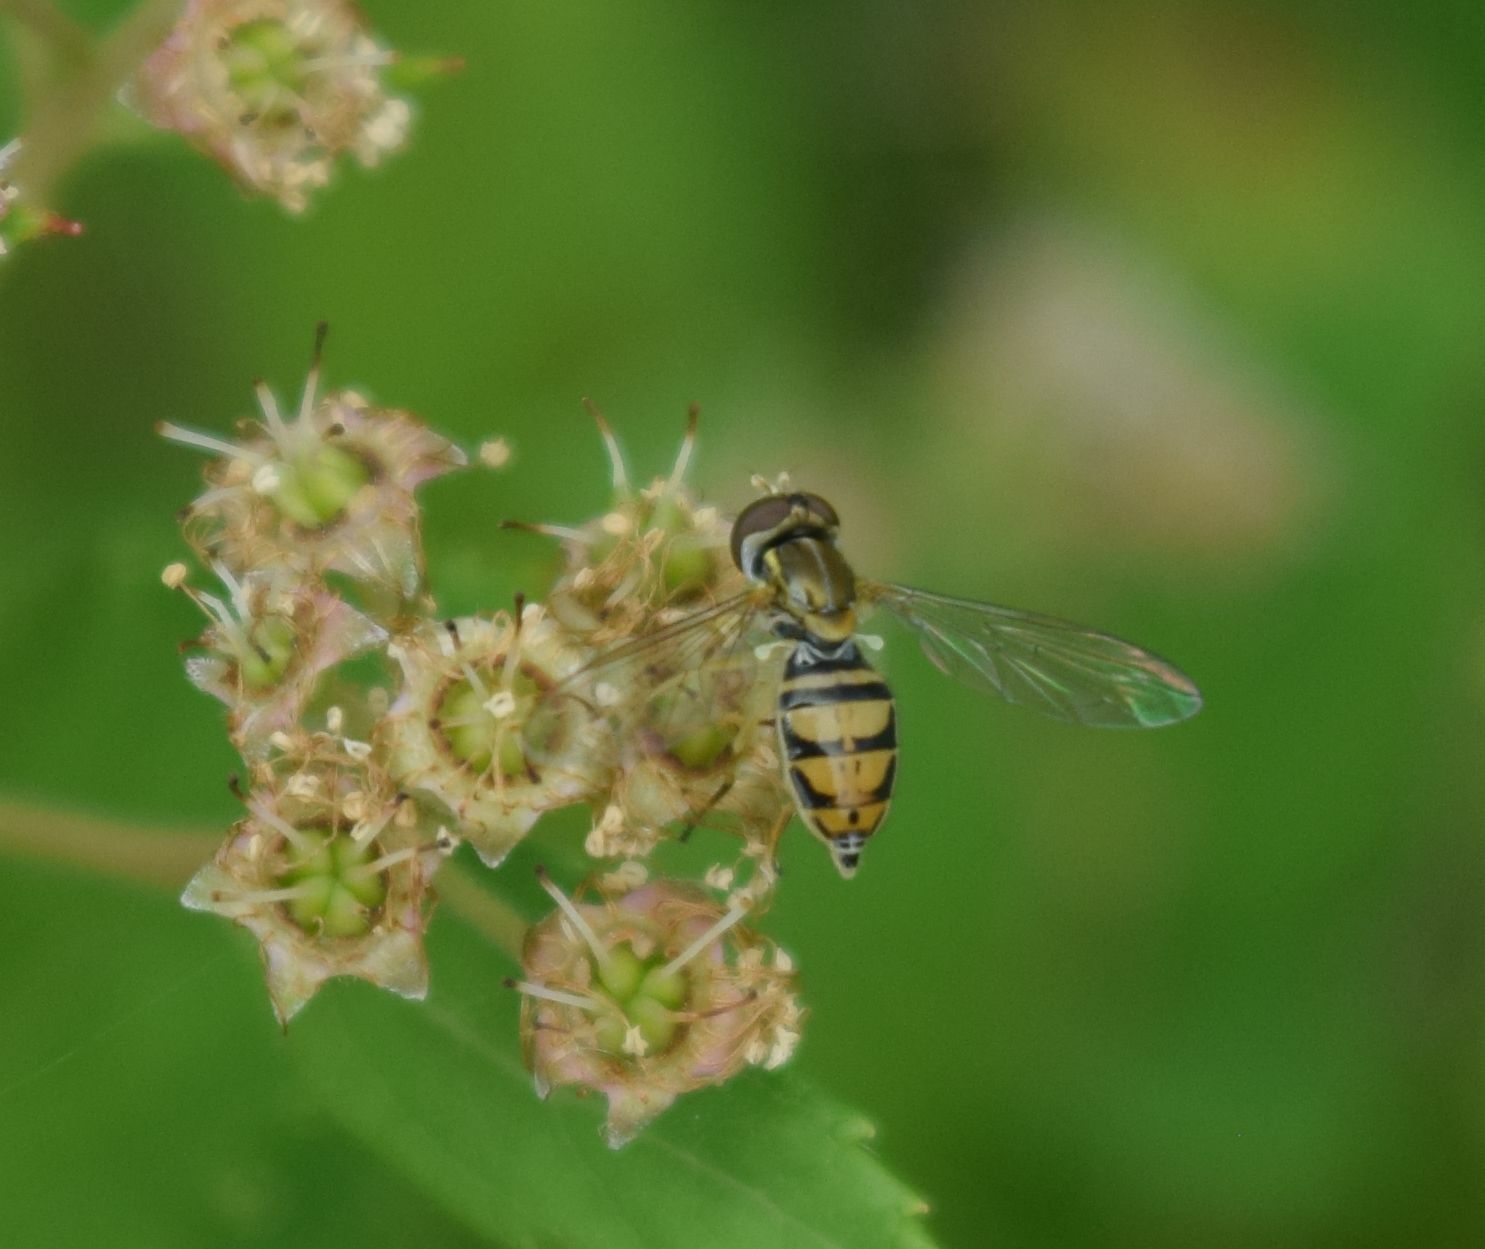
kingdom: Animalia
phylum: Arthropoda
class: Insecta
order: Diptera
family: Syrphidae
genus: Toxomerus
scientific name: Toxomerus marginatus
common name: Syrphid fly
